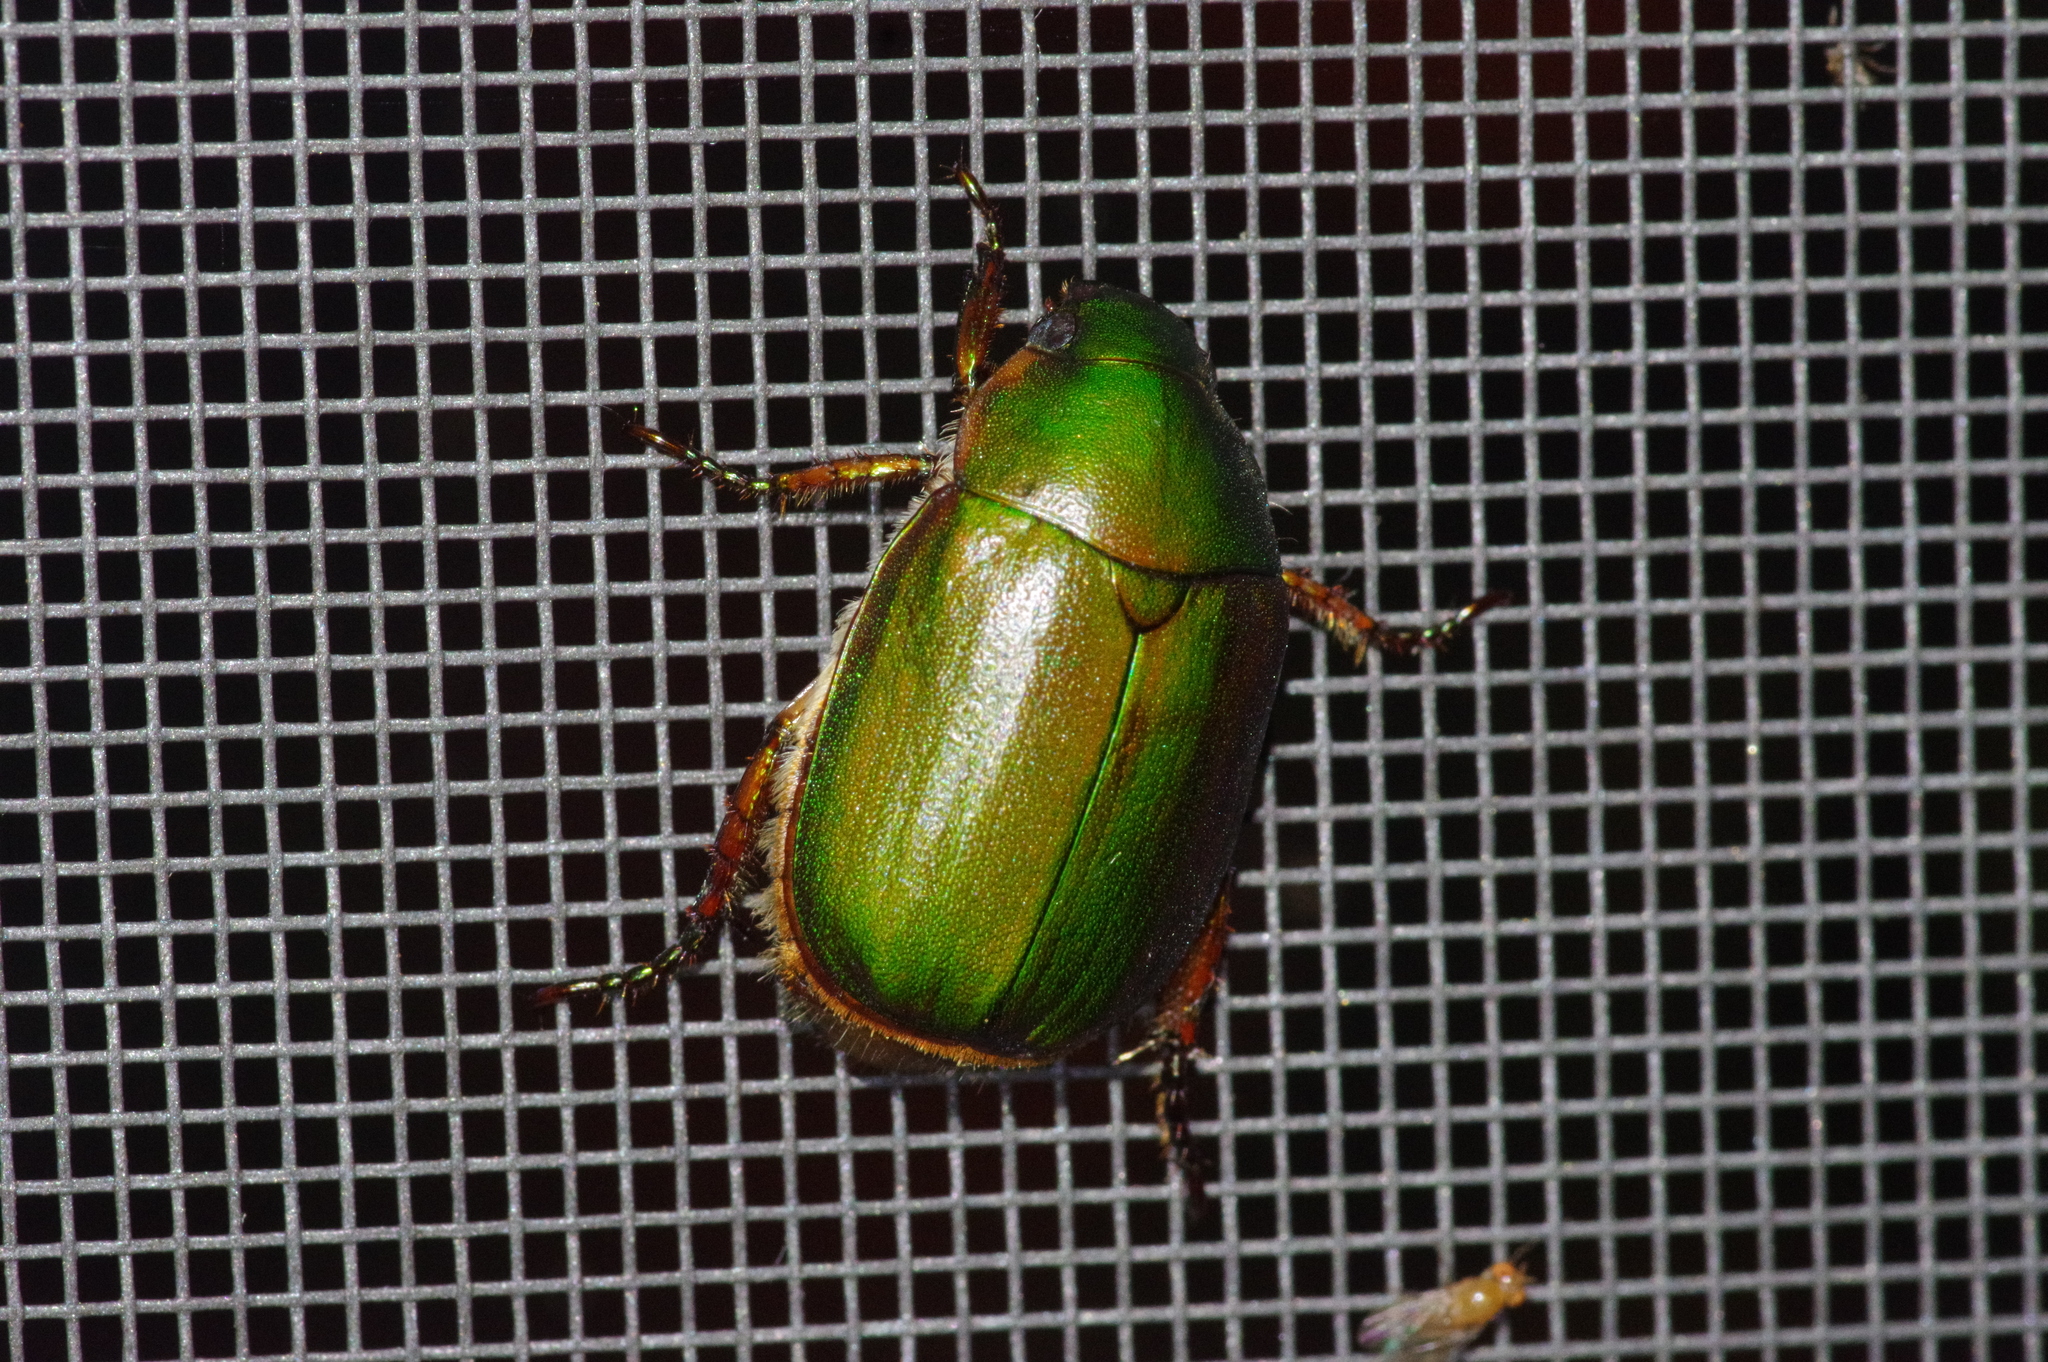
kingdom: Animalia
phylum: Arthropoda
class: Insecta
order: Coleoptera
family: Scarabaeidae
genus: Anomala
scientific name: Anomala albopilosa
